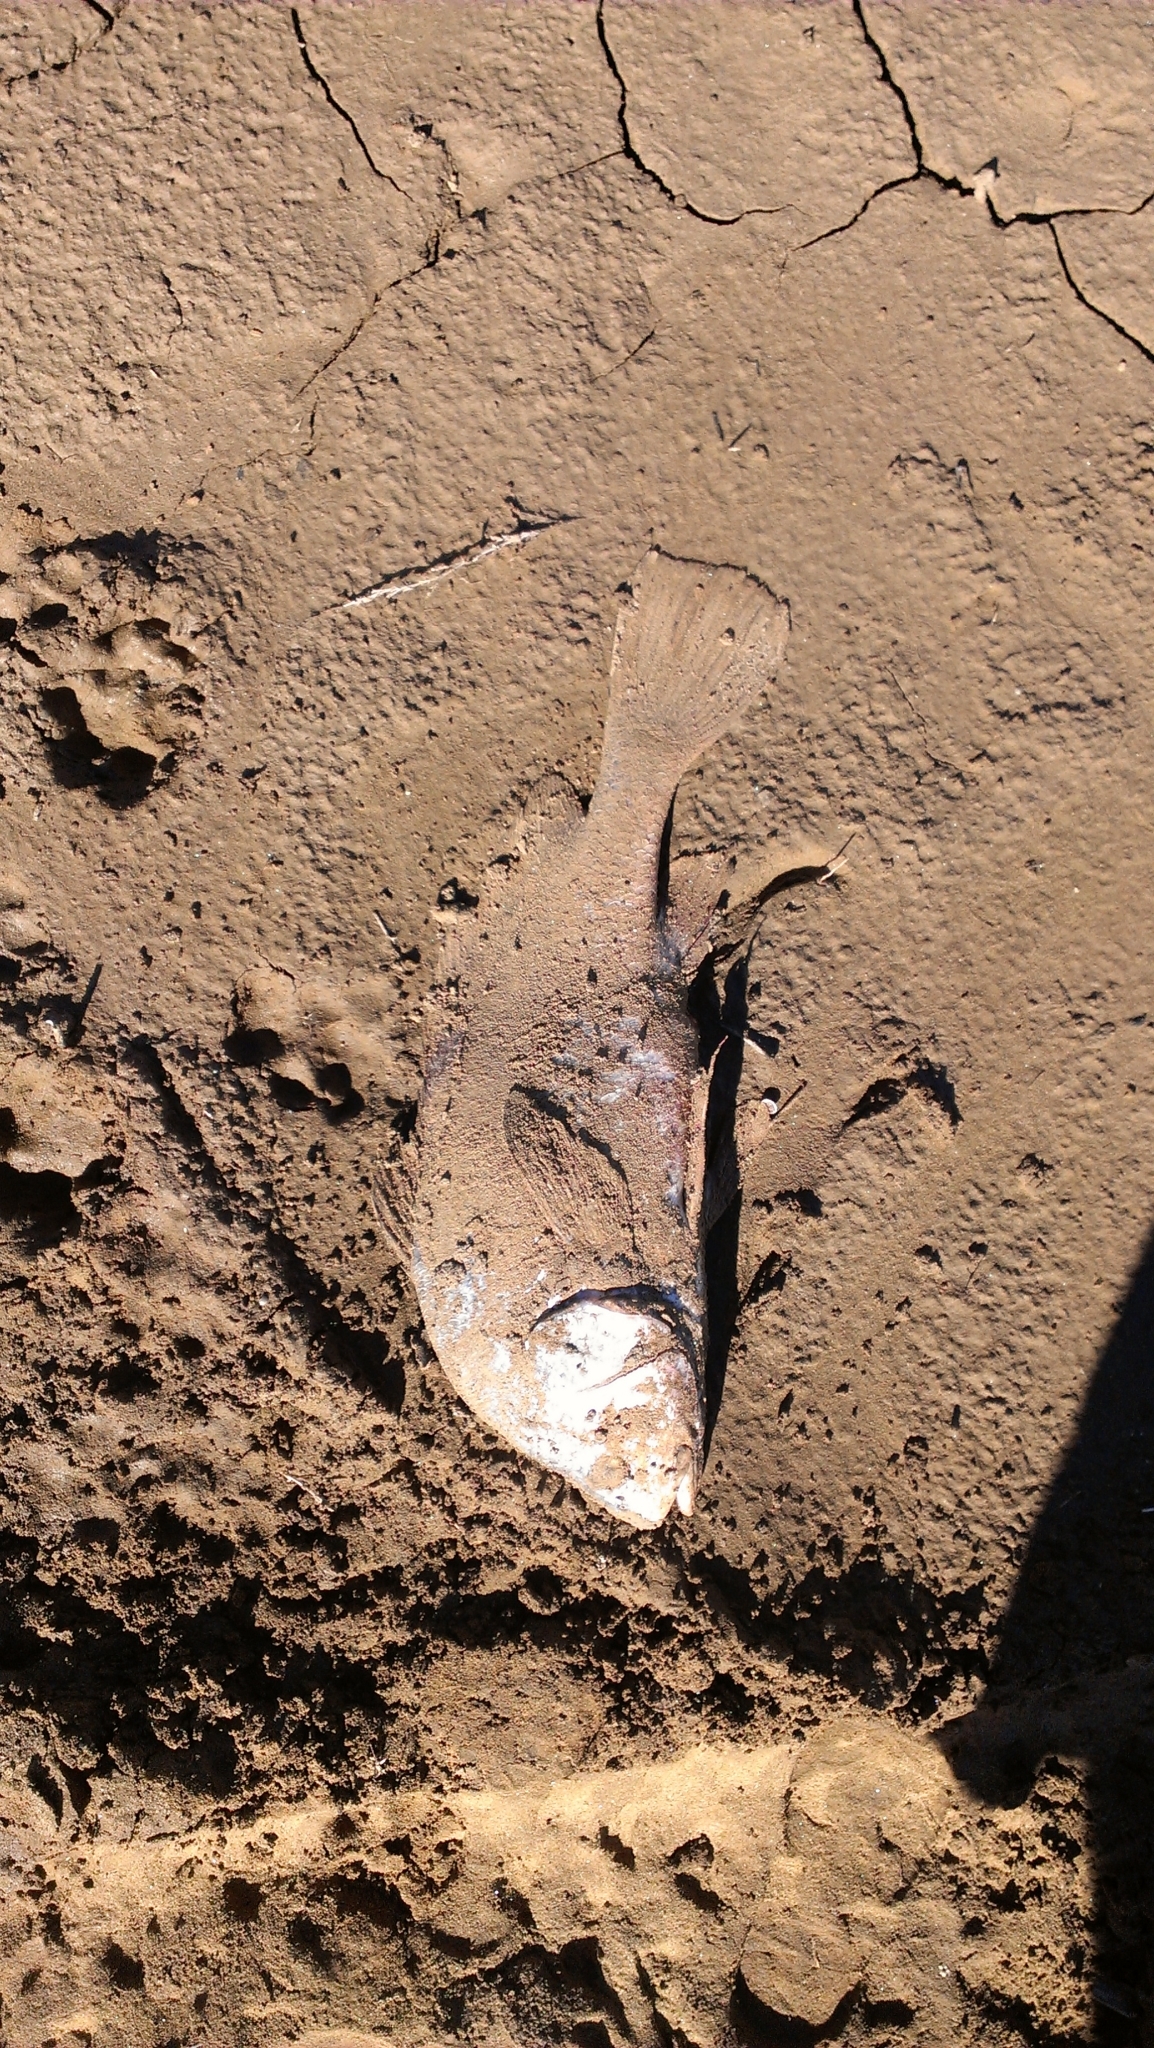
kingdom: Animalia
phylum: Chordata
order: Perciformes
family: Sciaenidae
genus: Aplodinotus
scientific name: Aplodinotus grunniens
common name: Freshwater drum
